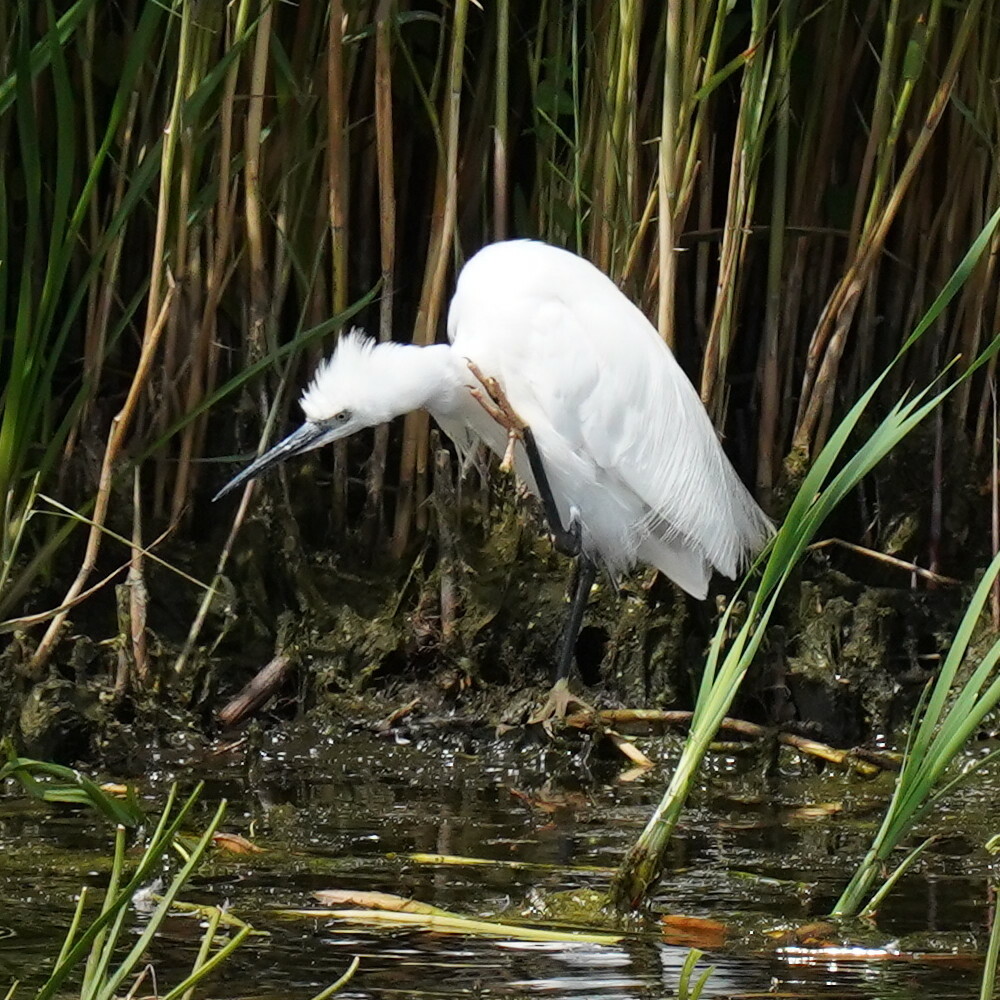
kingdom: Animalia
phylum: Chordata
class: Aves
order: Pelecaniformes
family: Ardeidae
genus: Egretta
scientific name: Egretta garzetta
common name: Little egret
